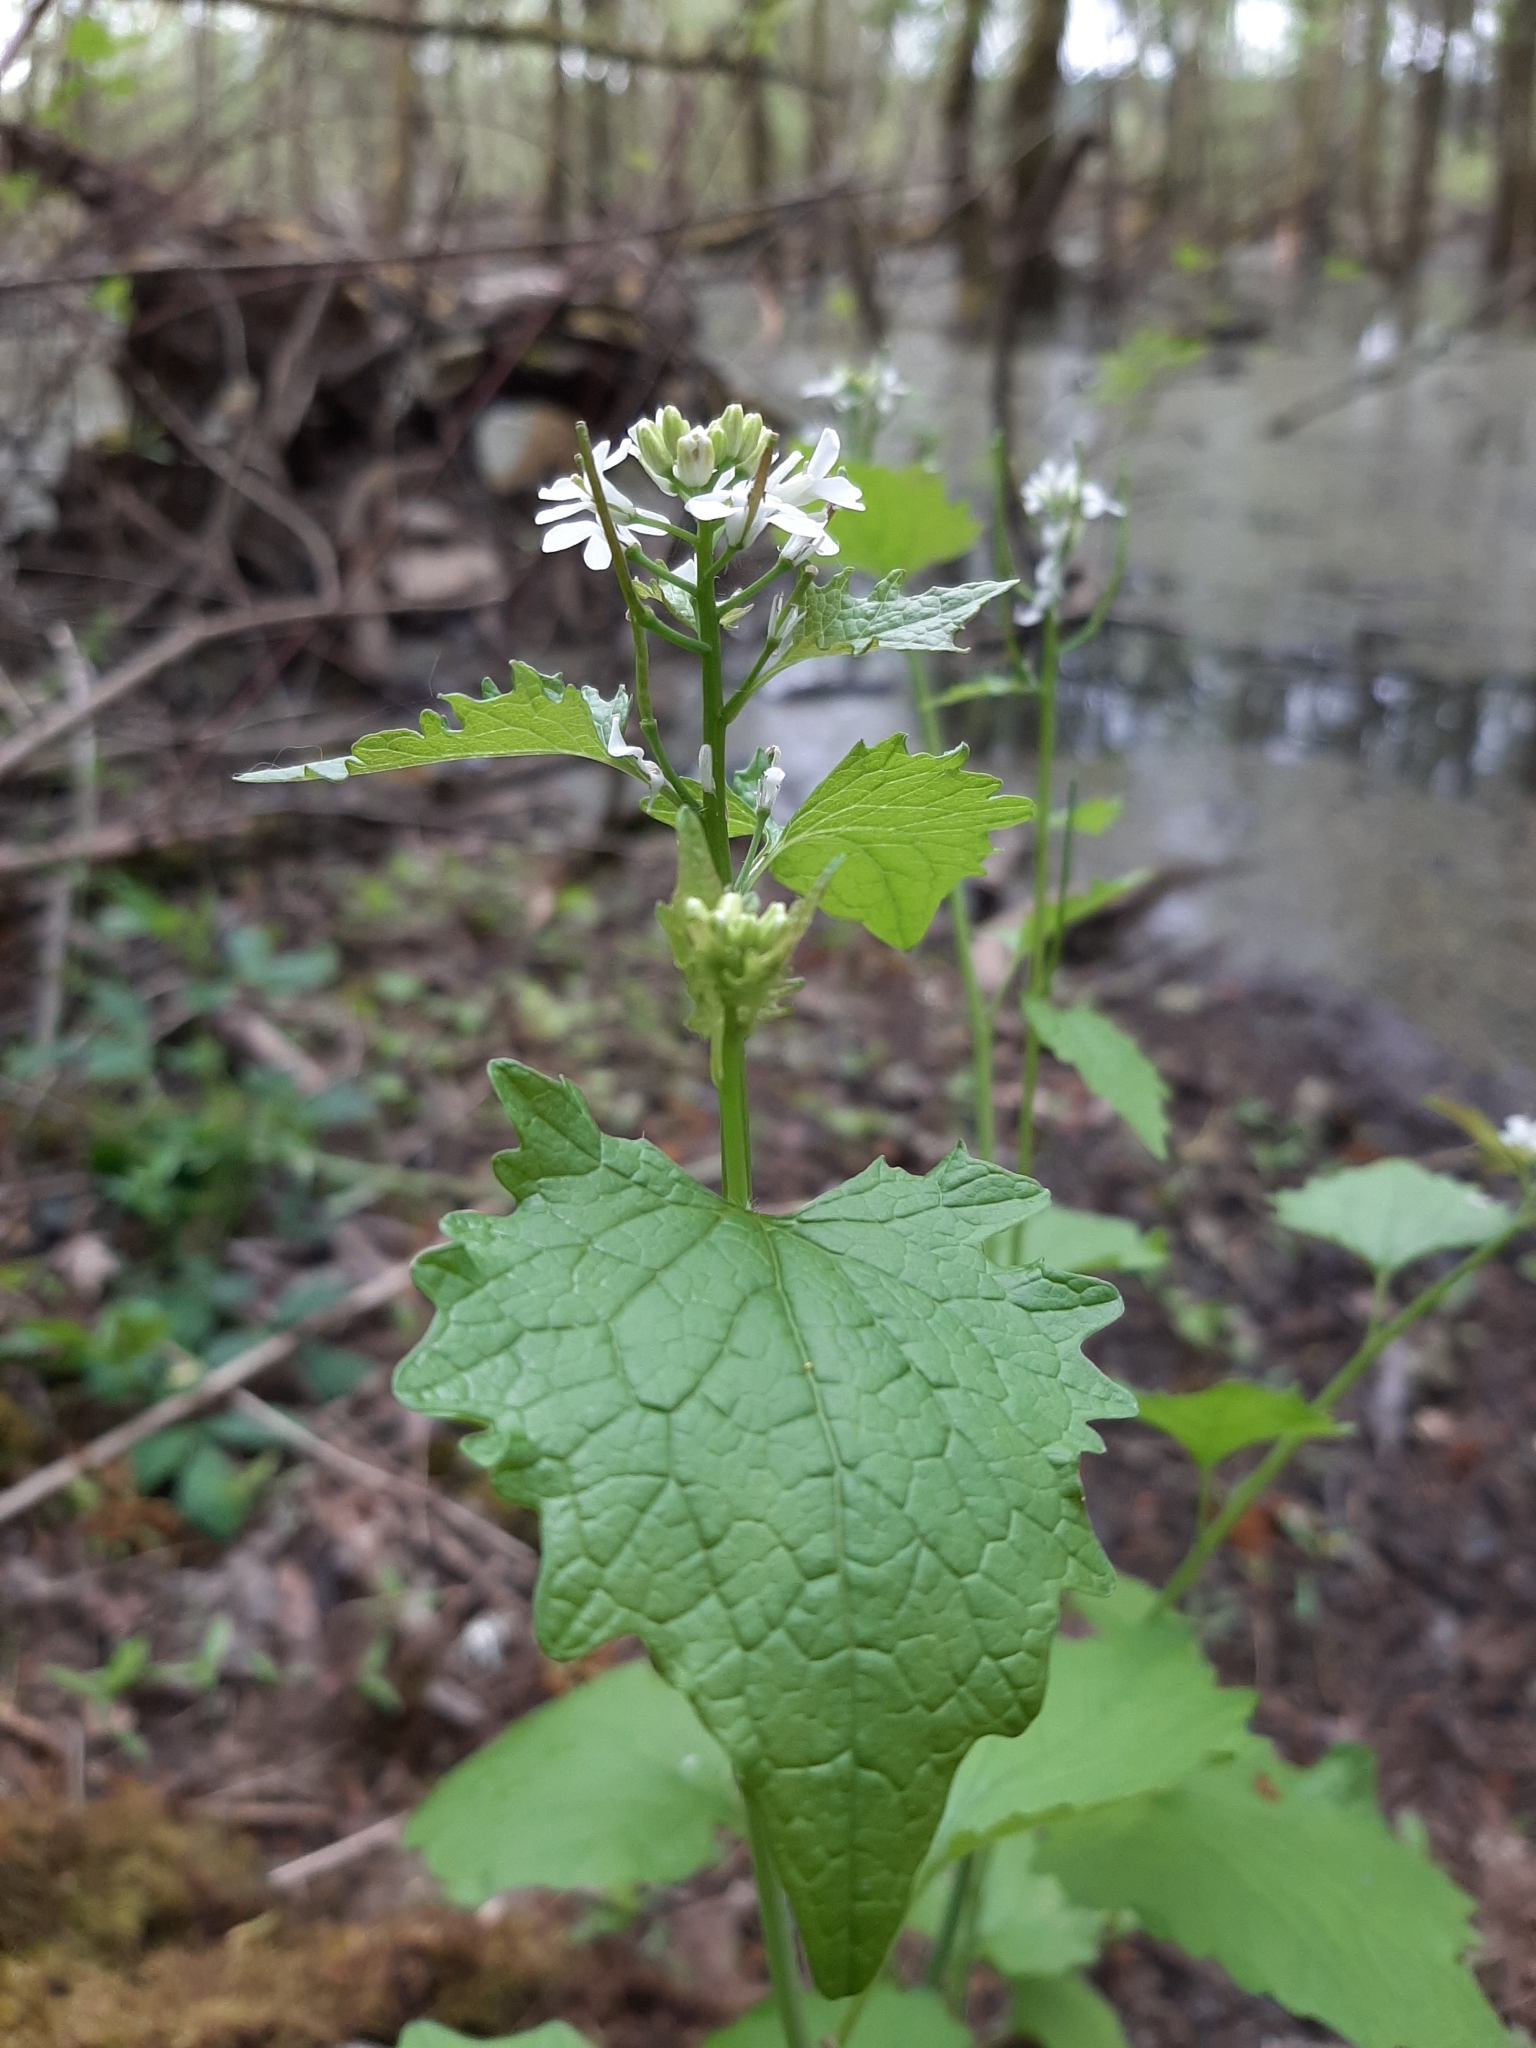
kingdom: Plantae
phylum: Tracheophyta
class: Magnoliopsida
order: Brassicales
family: Brassicaceae
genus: Alliaria
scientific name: Alliaria petiolata
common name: Garlic mustard
